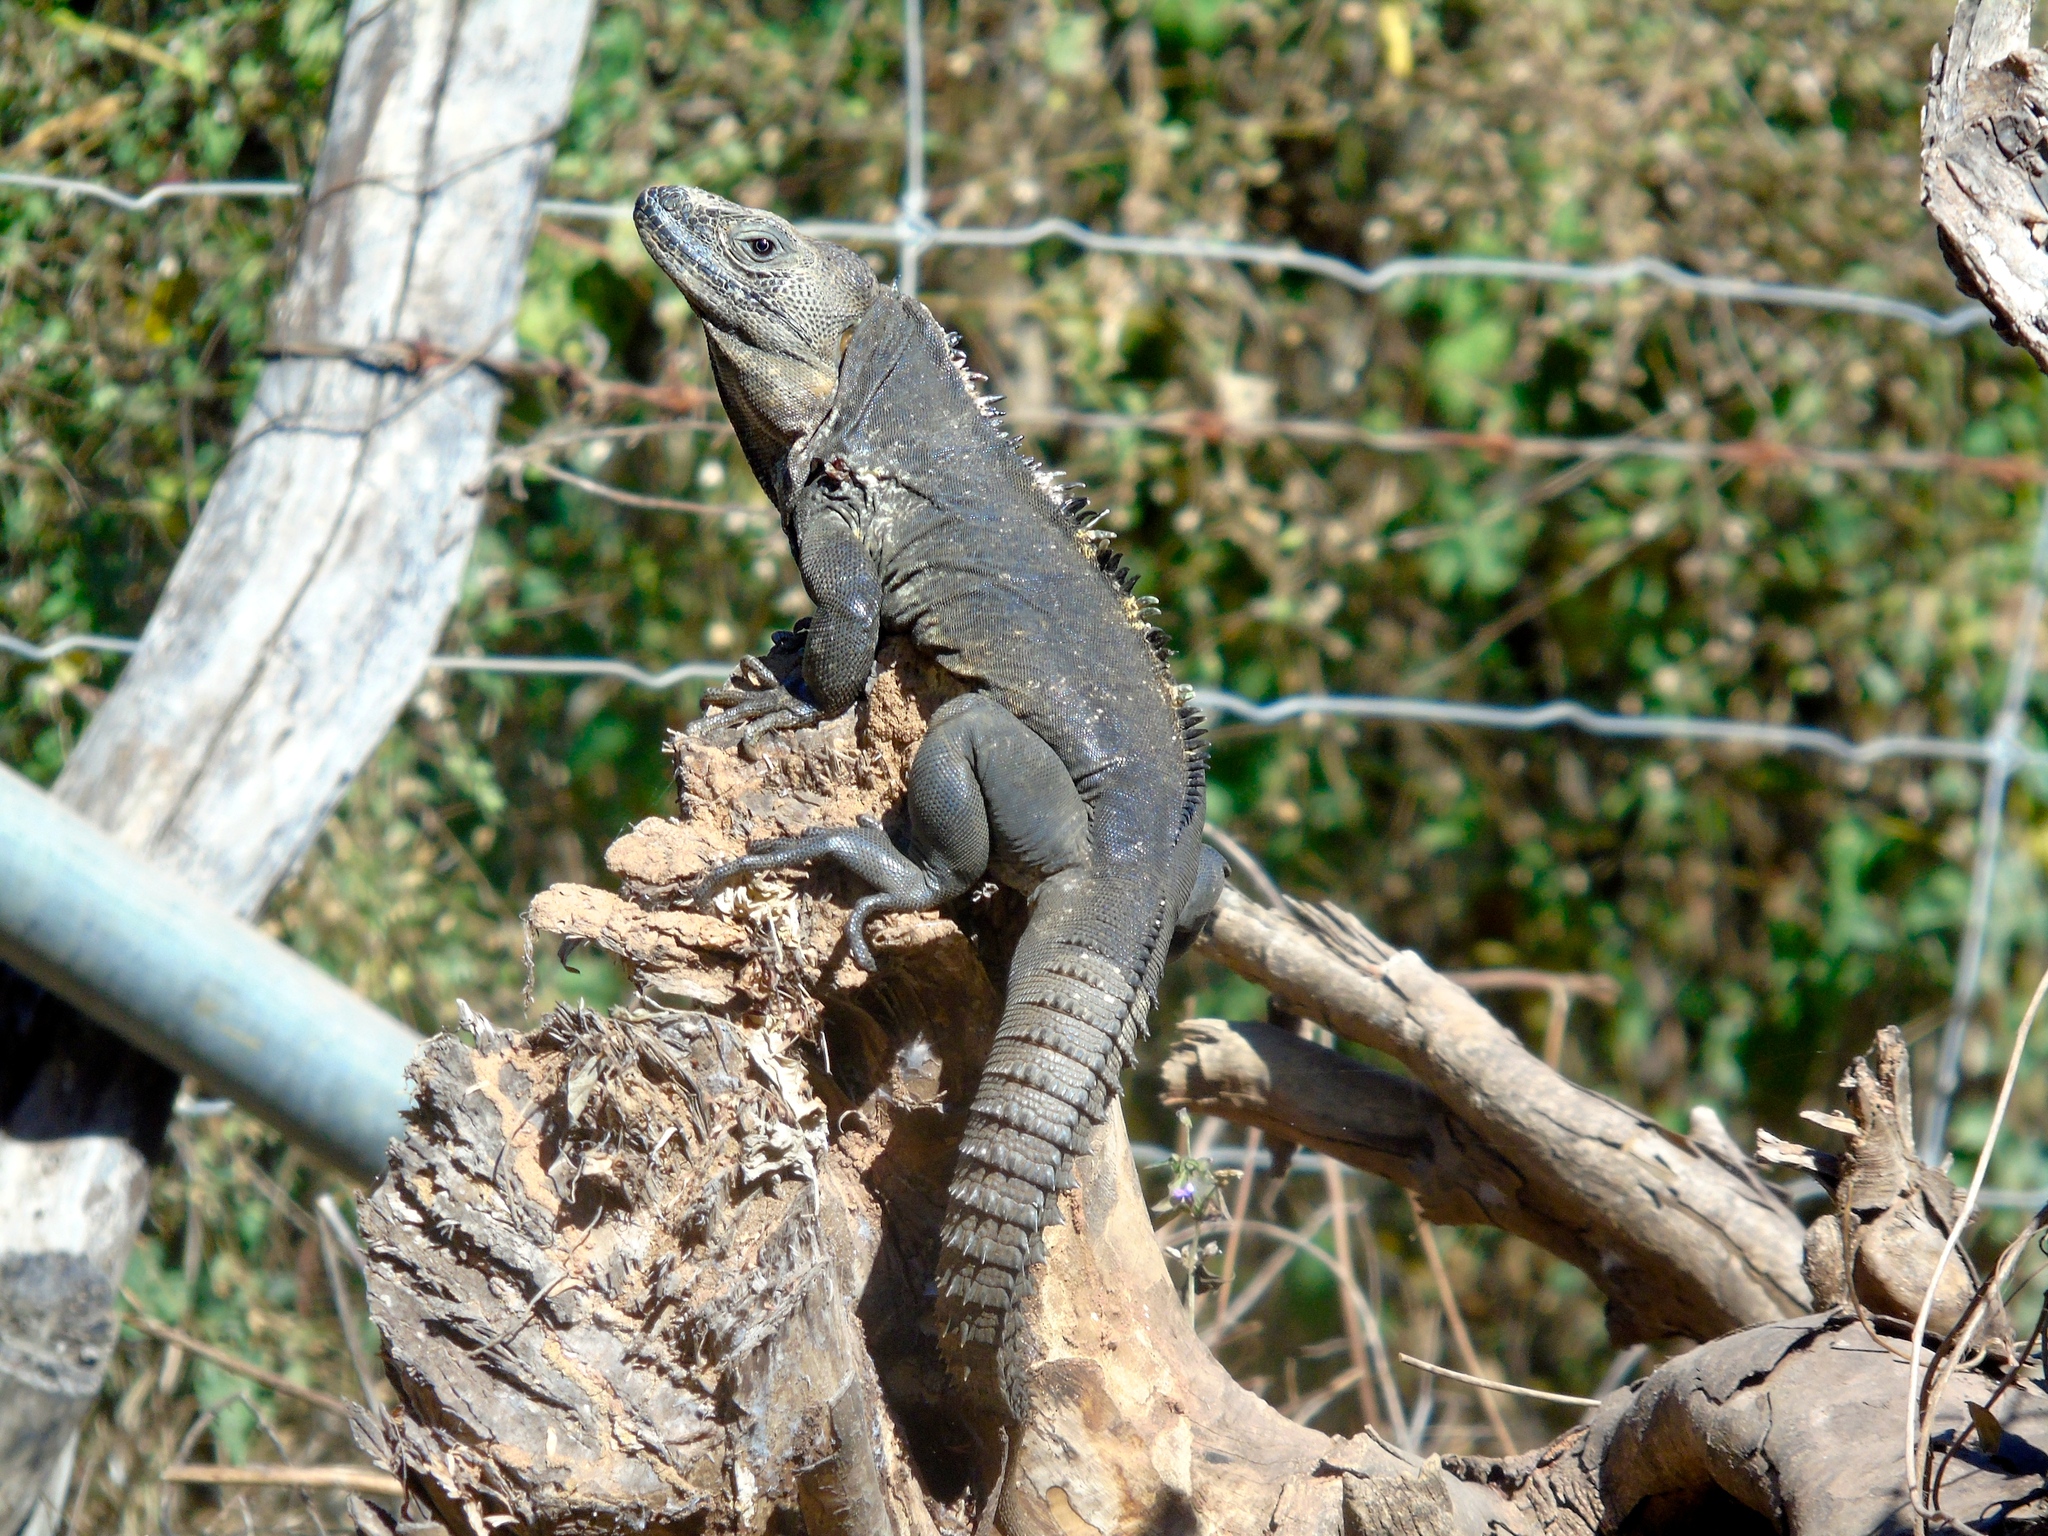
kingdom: Animalia
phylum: Chordata
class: Squamata
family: Iguanidae
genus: Ctenosaura
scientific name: Ctenosaura pectinata
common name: Guerreran spiny-tailed iguana
